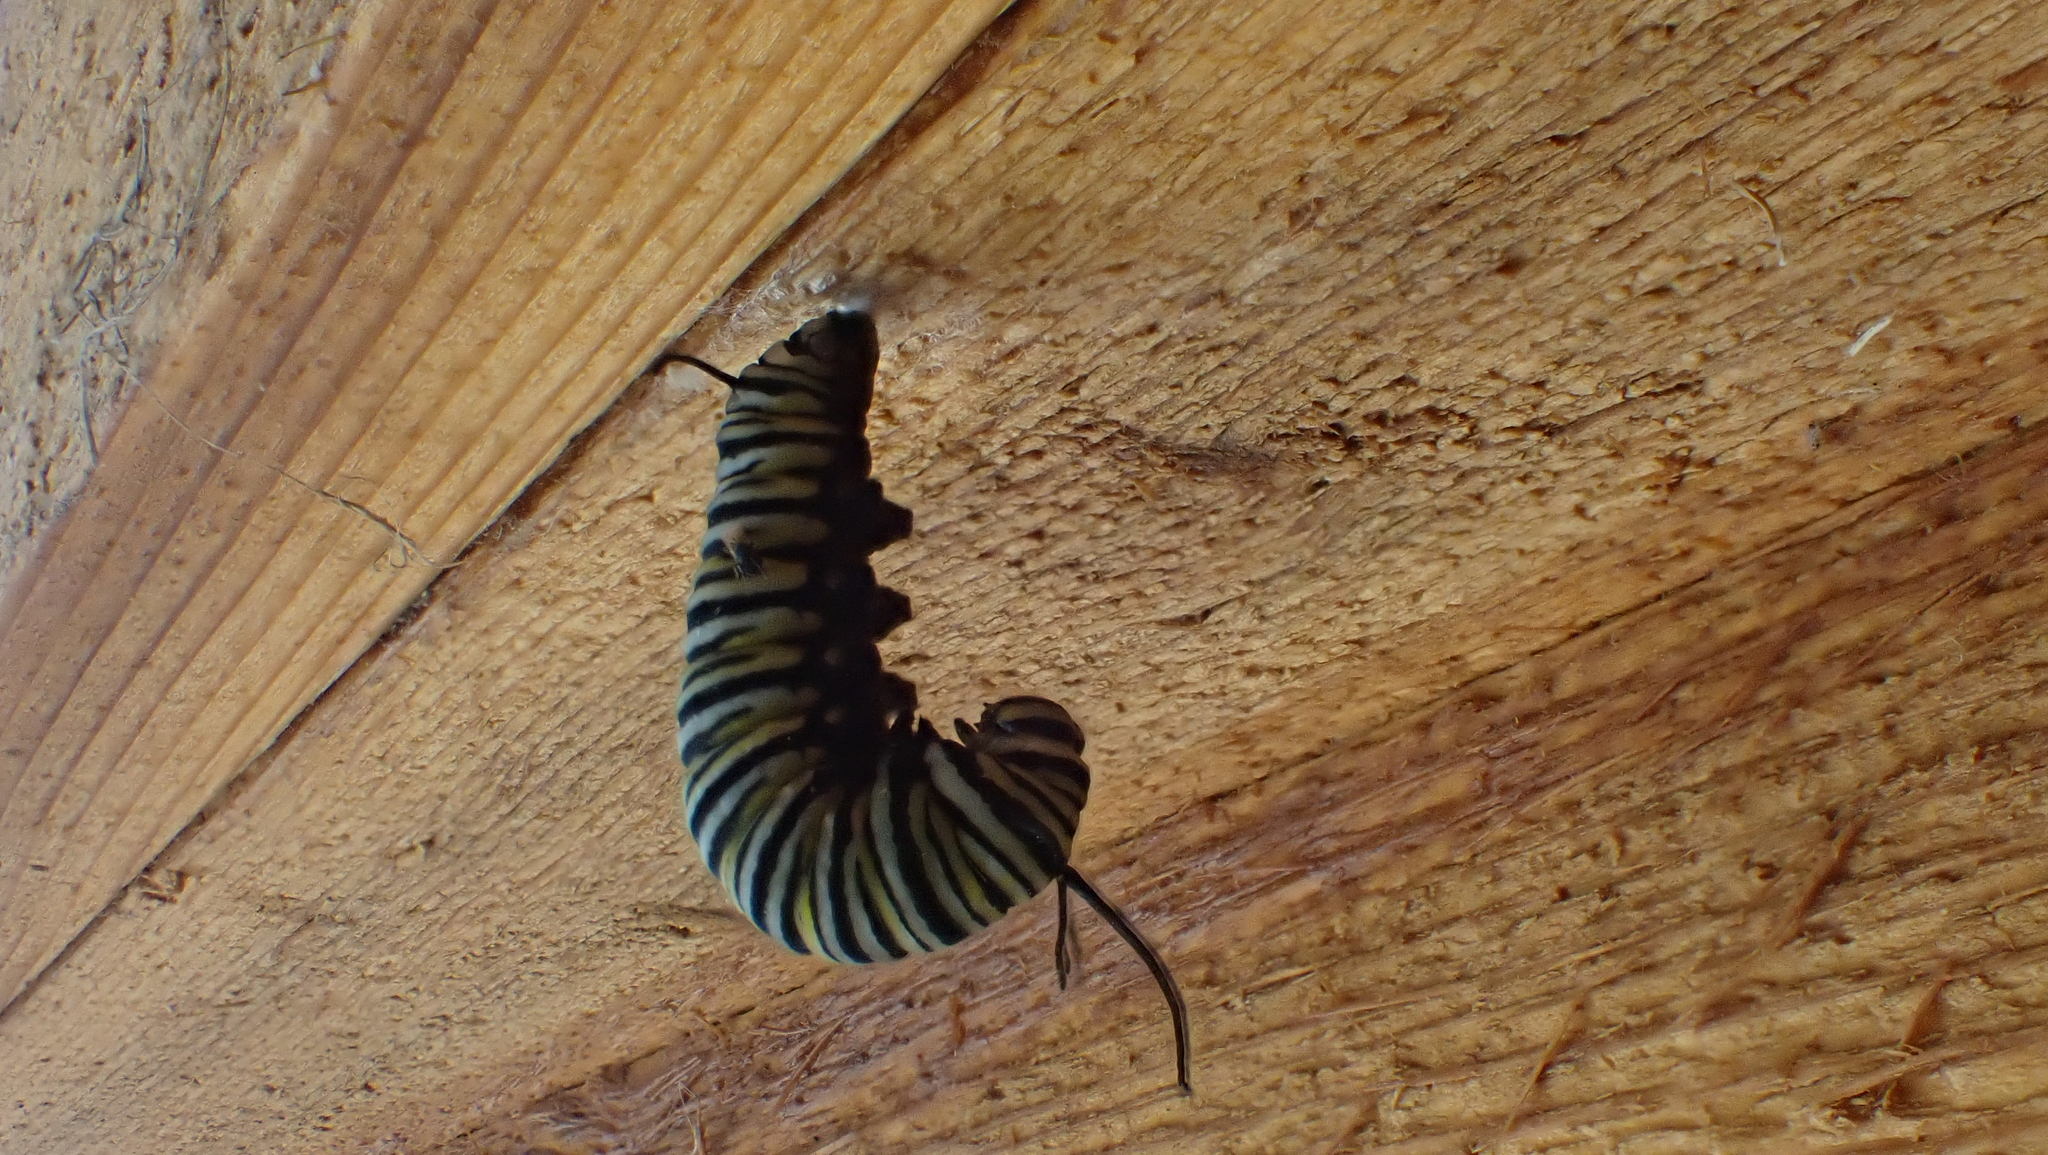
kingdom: Animalia
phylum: Arthropoda
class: Insecta
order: Lepidoptera
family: Nymphalidae
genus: Danaus
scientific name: Danaus plexippus
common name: Monarch
